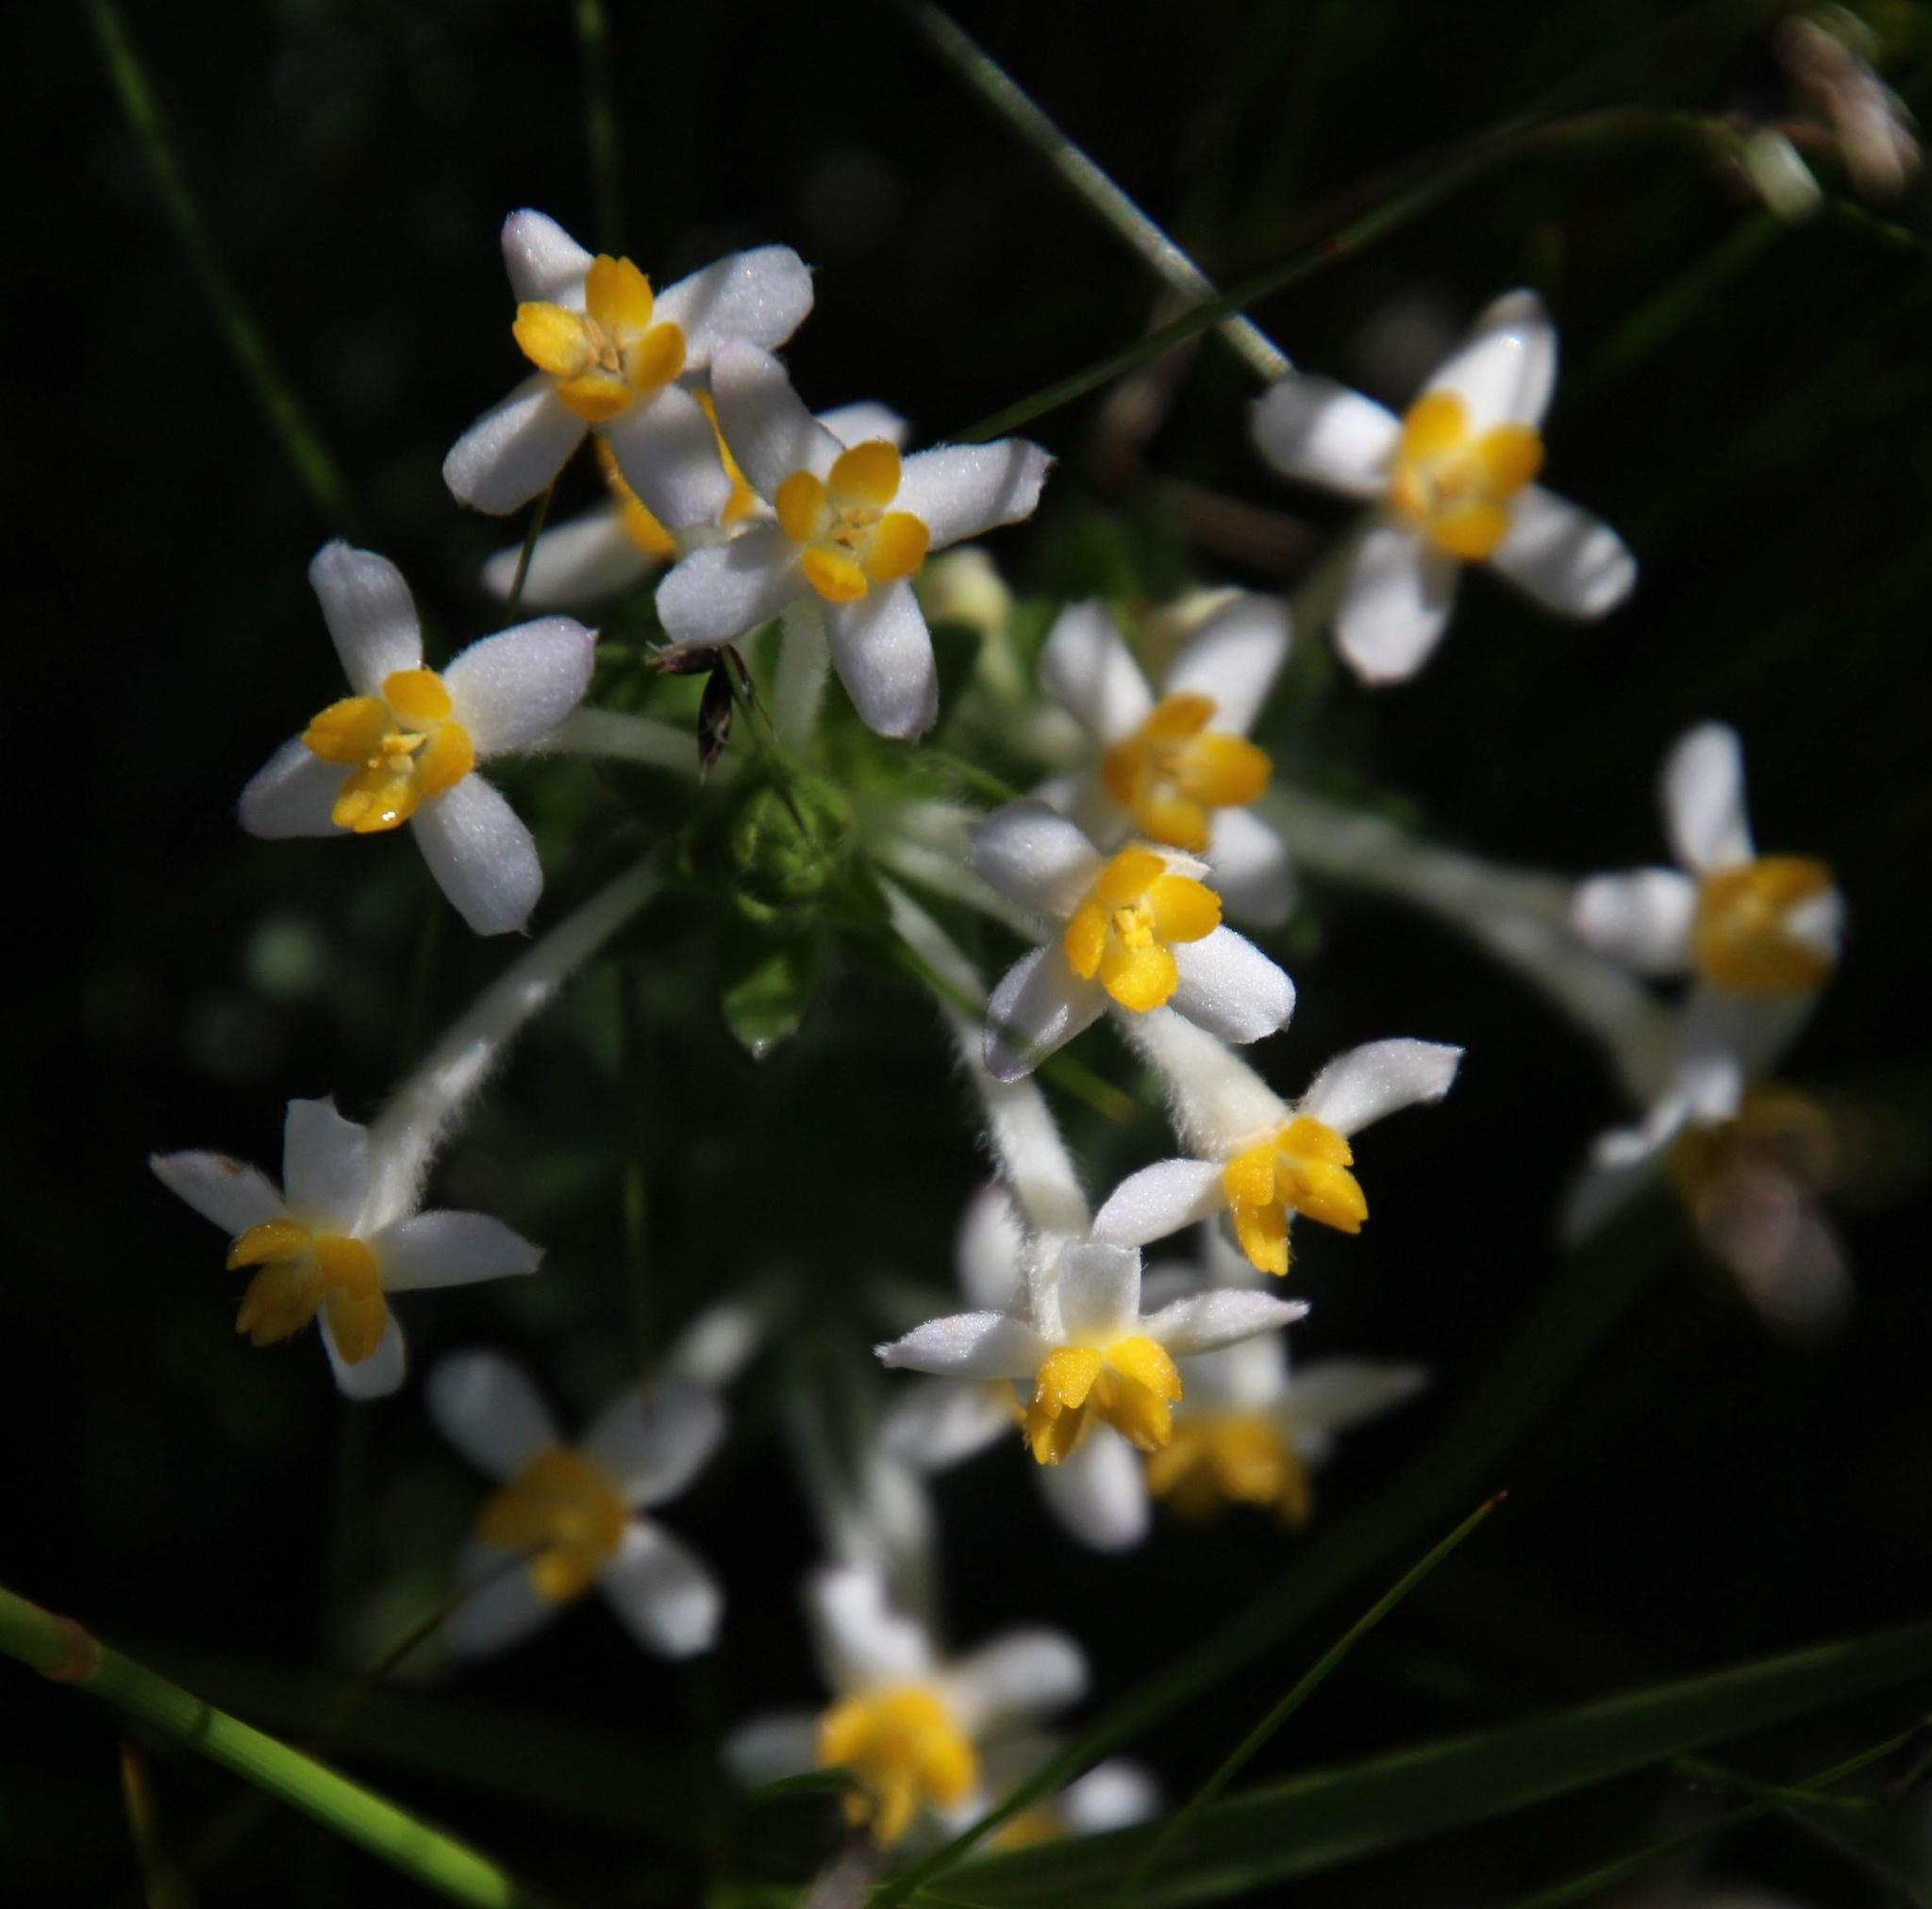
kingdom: Plantae
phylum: Tracheophyta
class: Magnoliopsida
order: Malvales
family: Thymelaeaceae
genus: Gnidia
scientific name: Gnidia tomentosa
